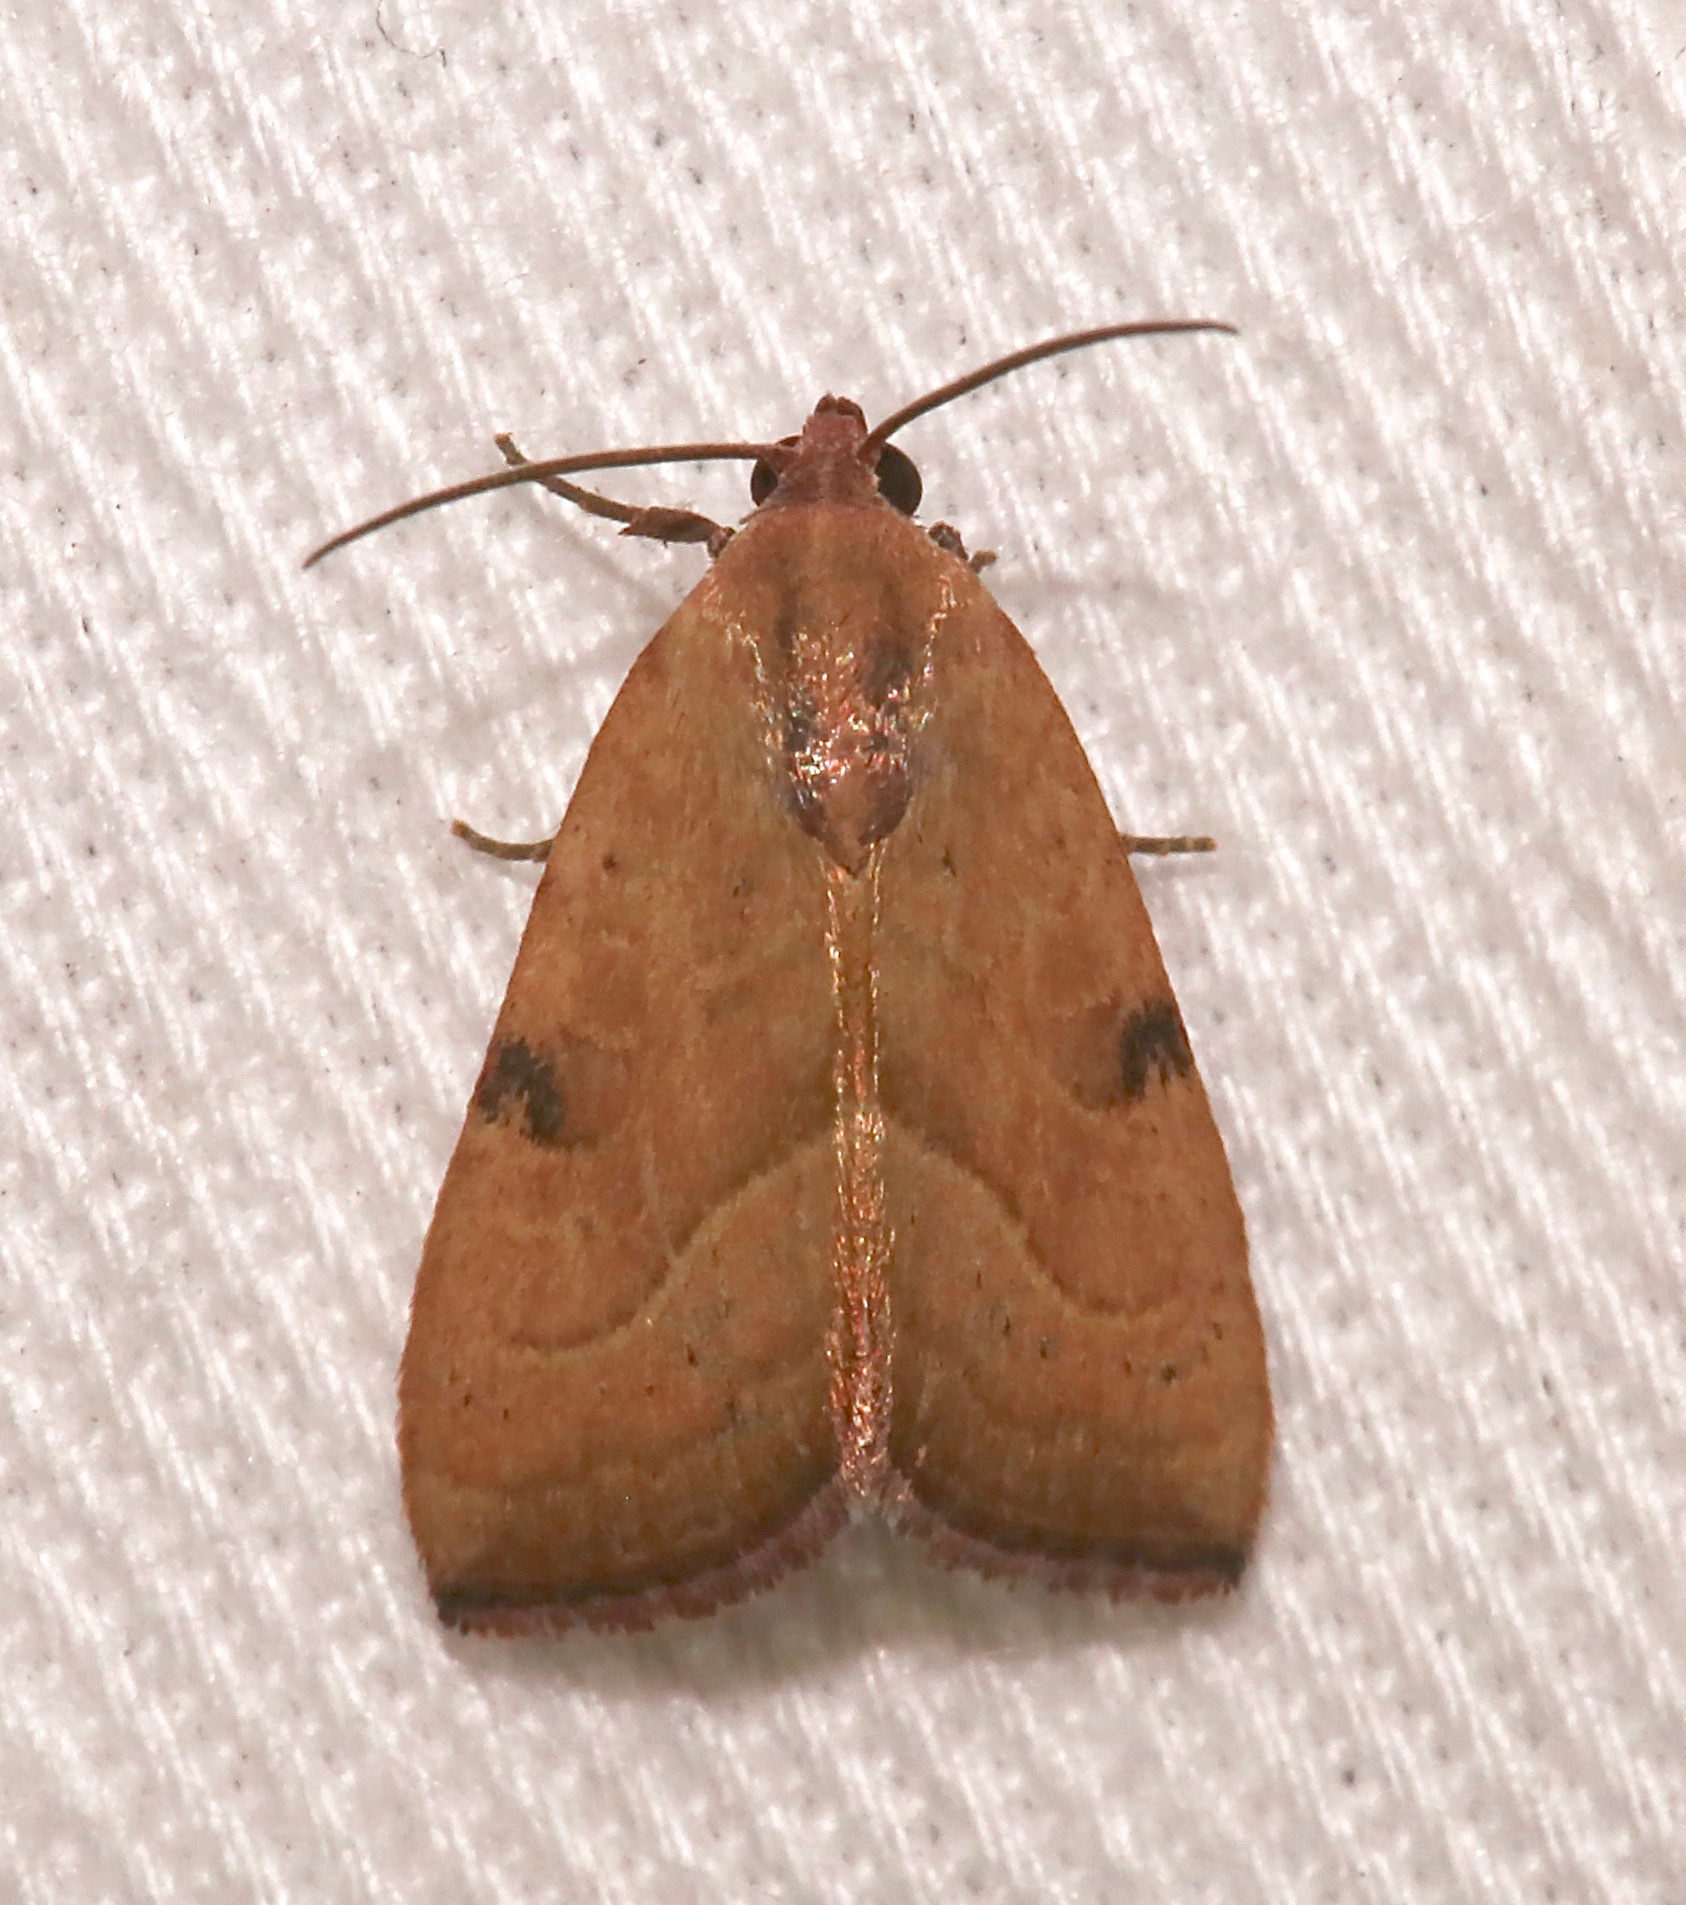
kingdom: Animalia
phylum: Arthropoda
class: Insecta
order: Lepidoptera
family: Noctuidae
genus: Galgula
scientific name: Galgula partita
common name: Wedgeling
